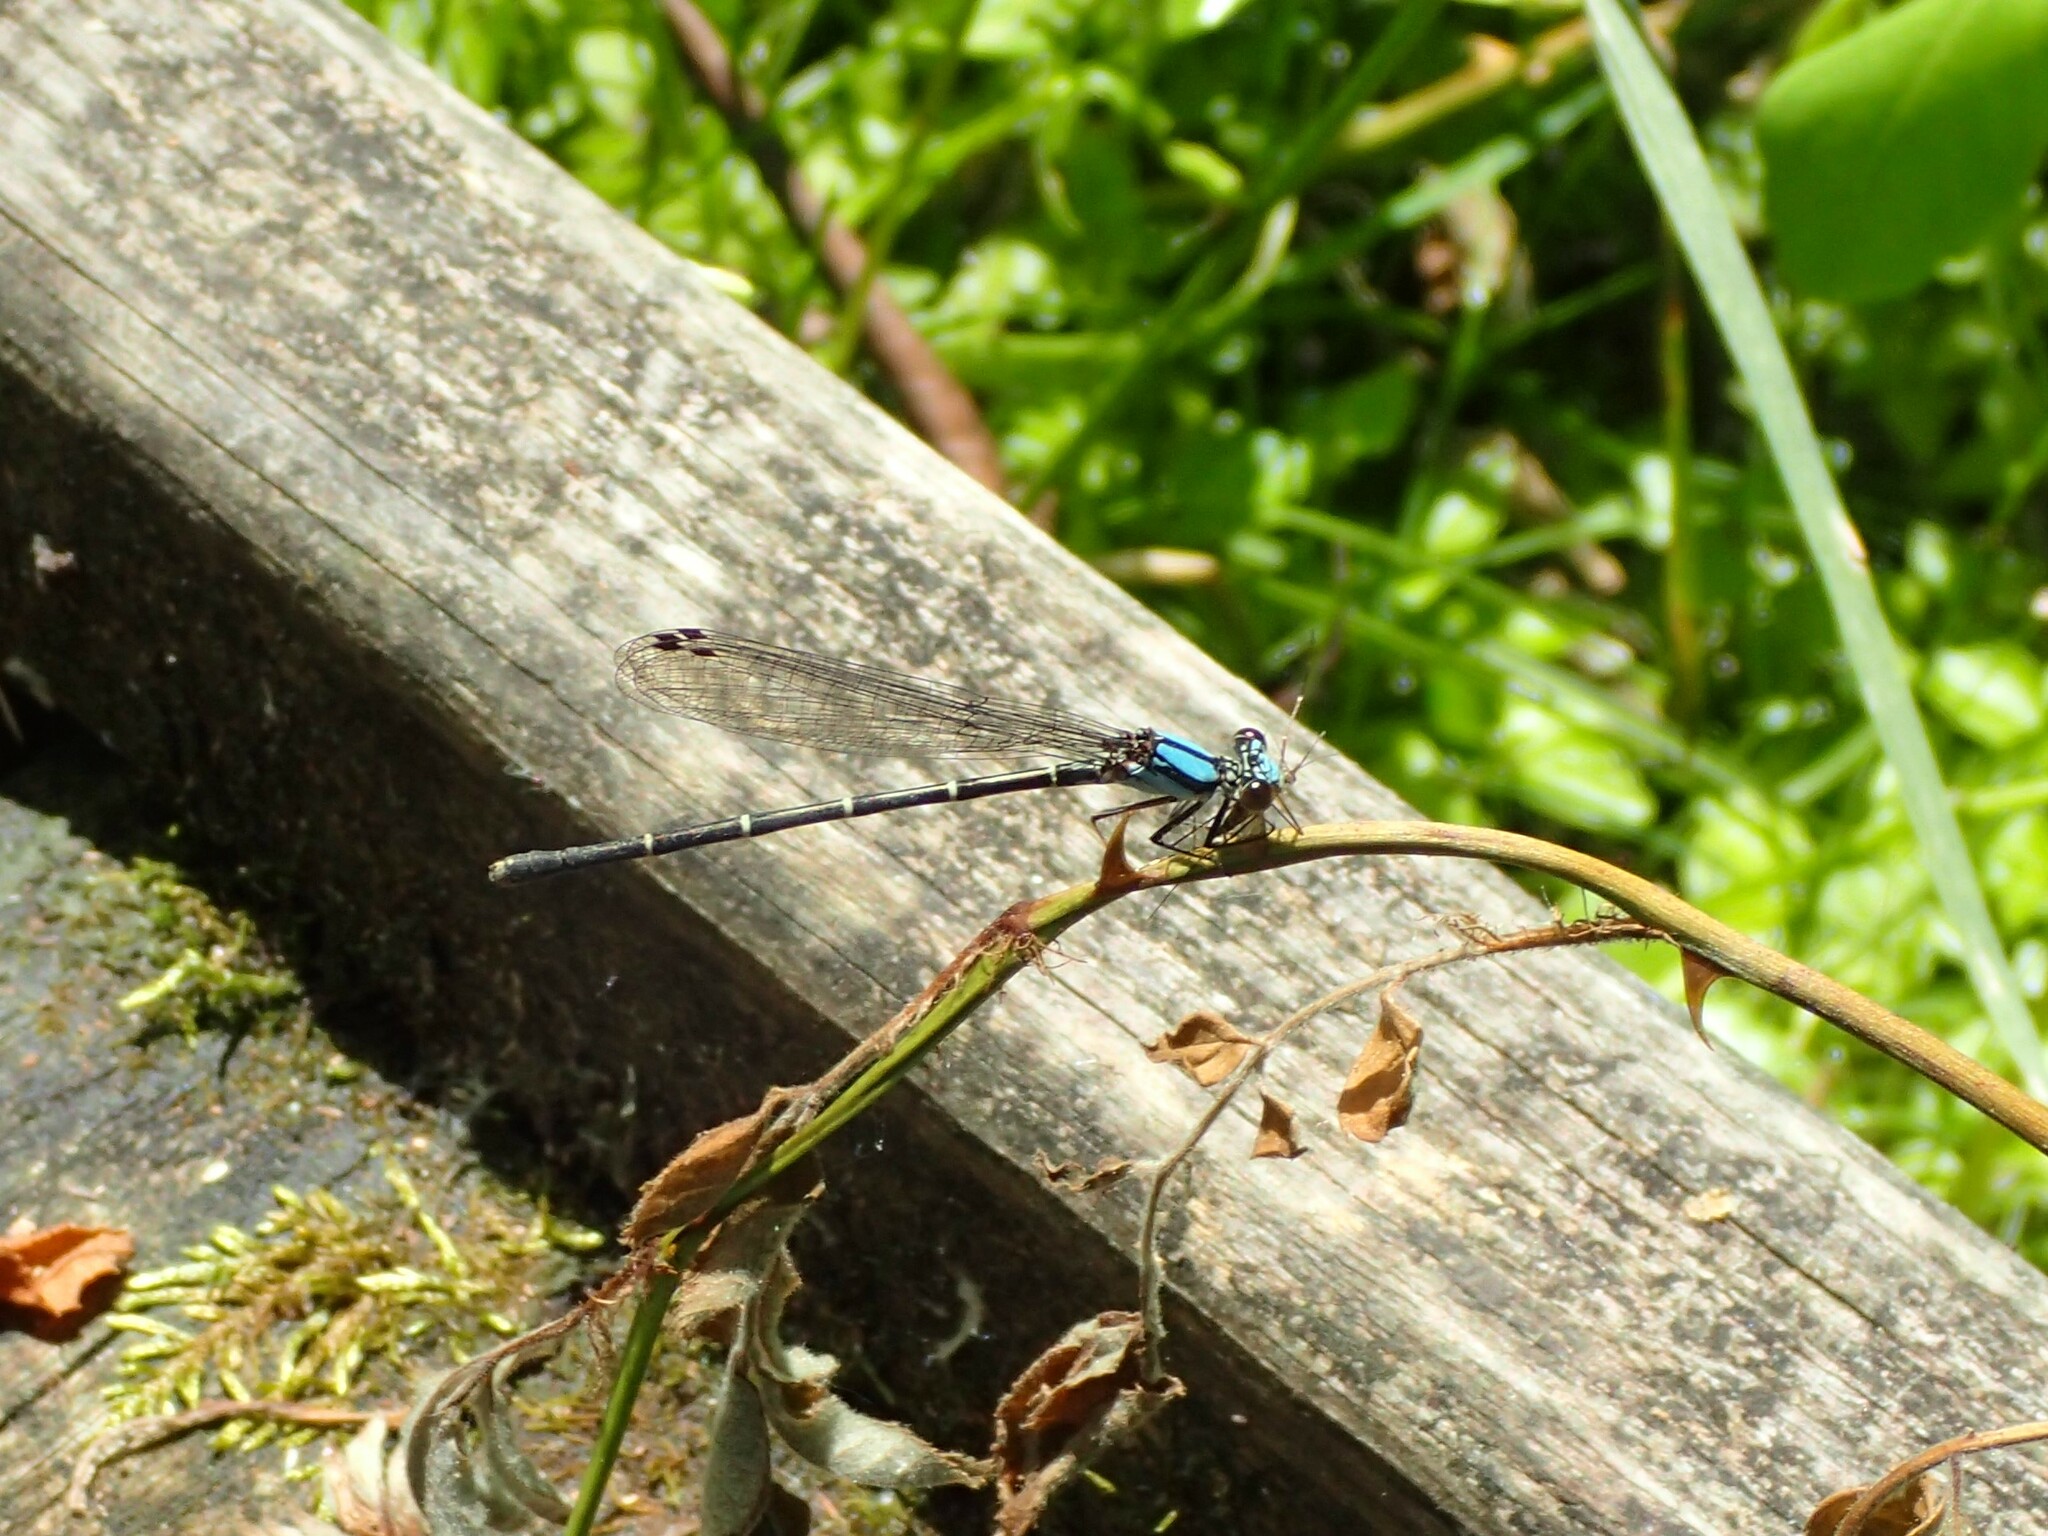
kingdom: Animalia
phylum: Arthropoda
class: Insecta
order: Odonata
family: Coenagrionidae
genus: Argia
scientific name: Argia tibialis
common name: Blue-tipped dancer
